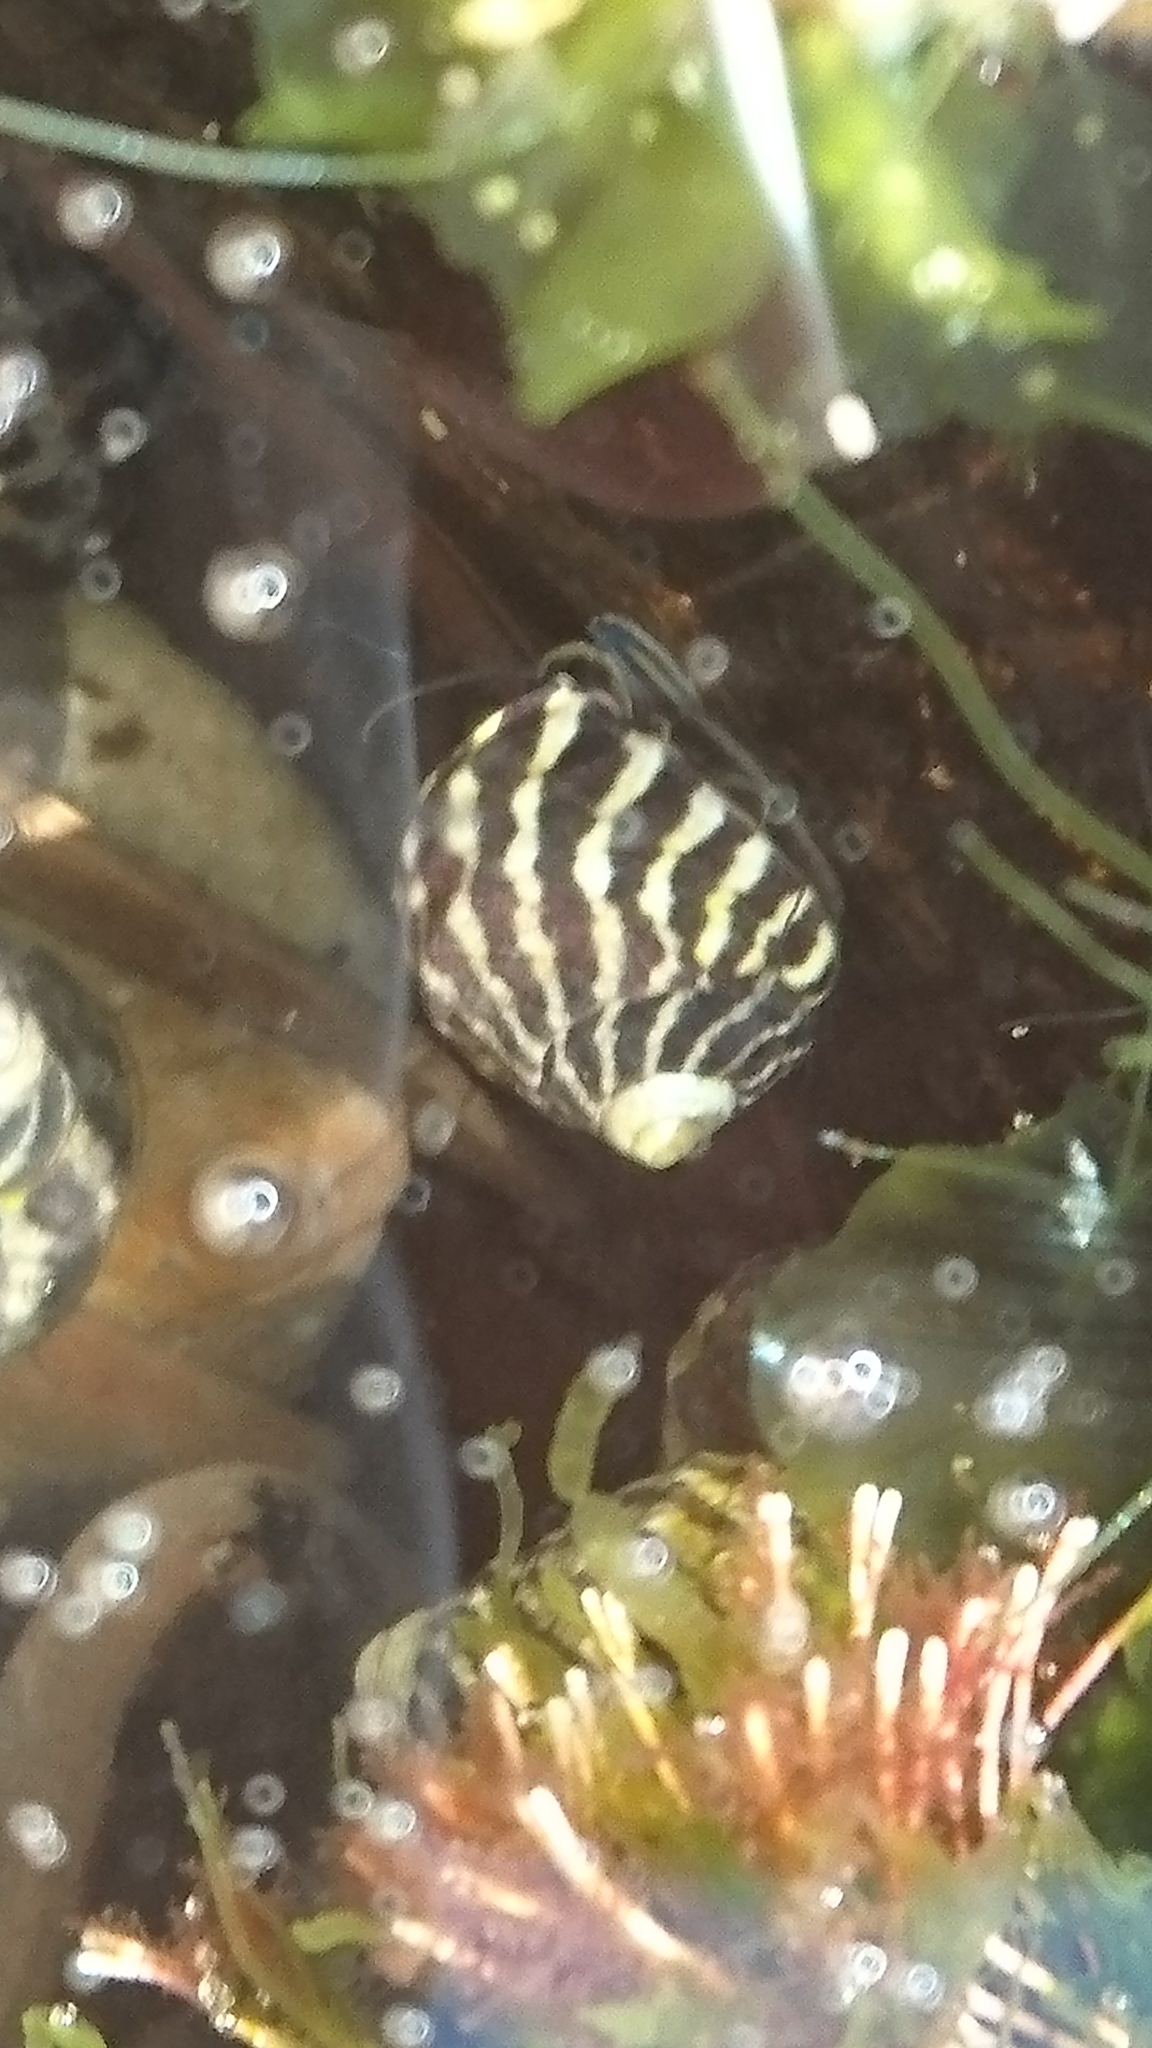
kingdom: Animalia
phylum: Mollusca
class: Gastropoda
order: Trochida
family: Trochidae
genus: Austrocochlea
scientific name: Austrocochlea porcata
